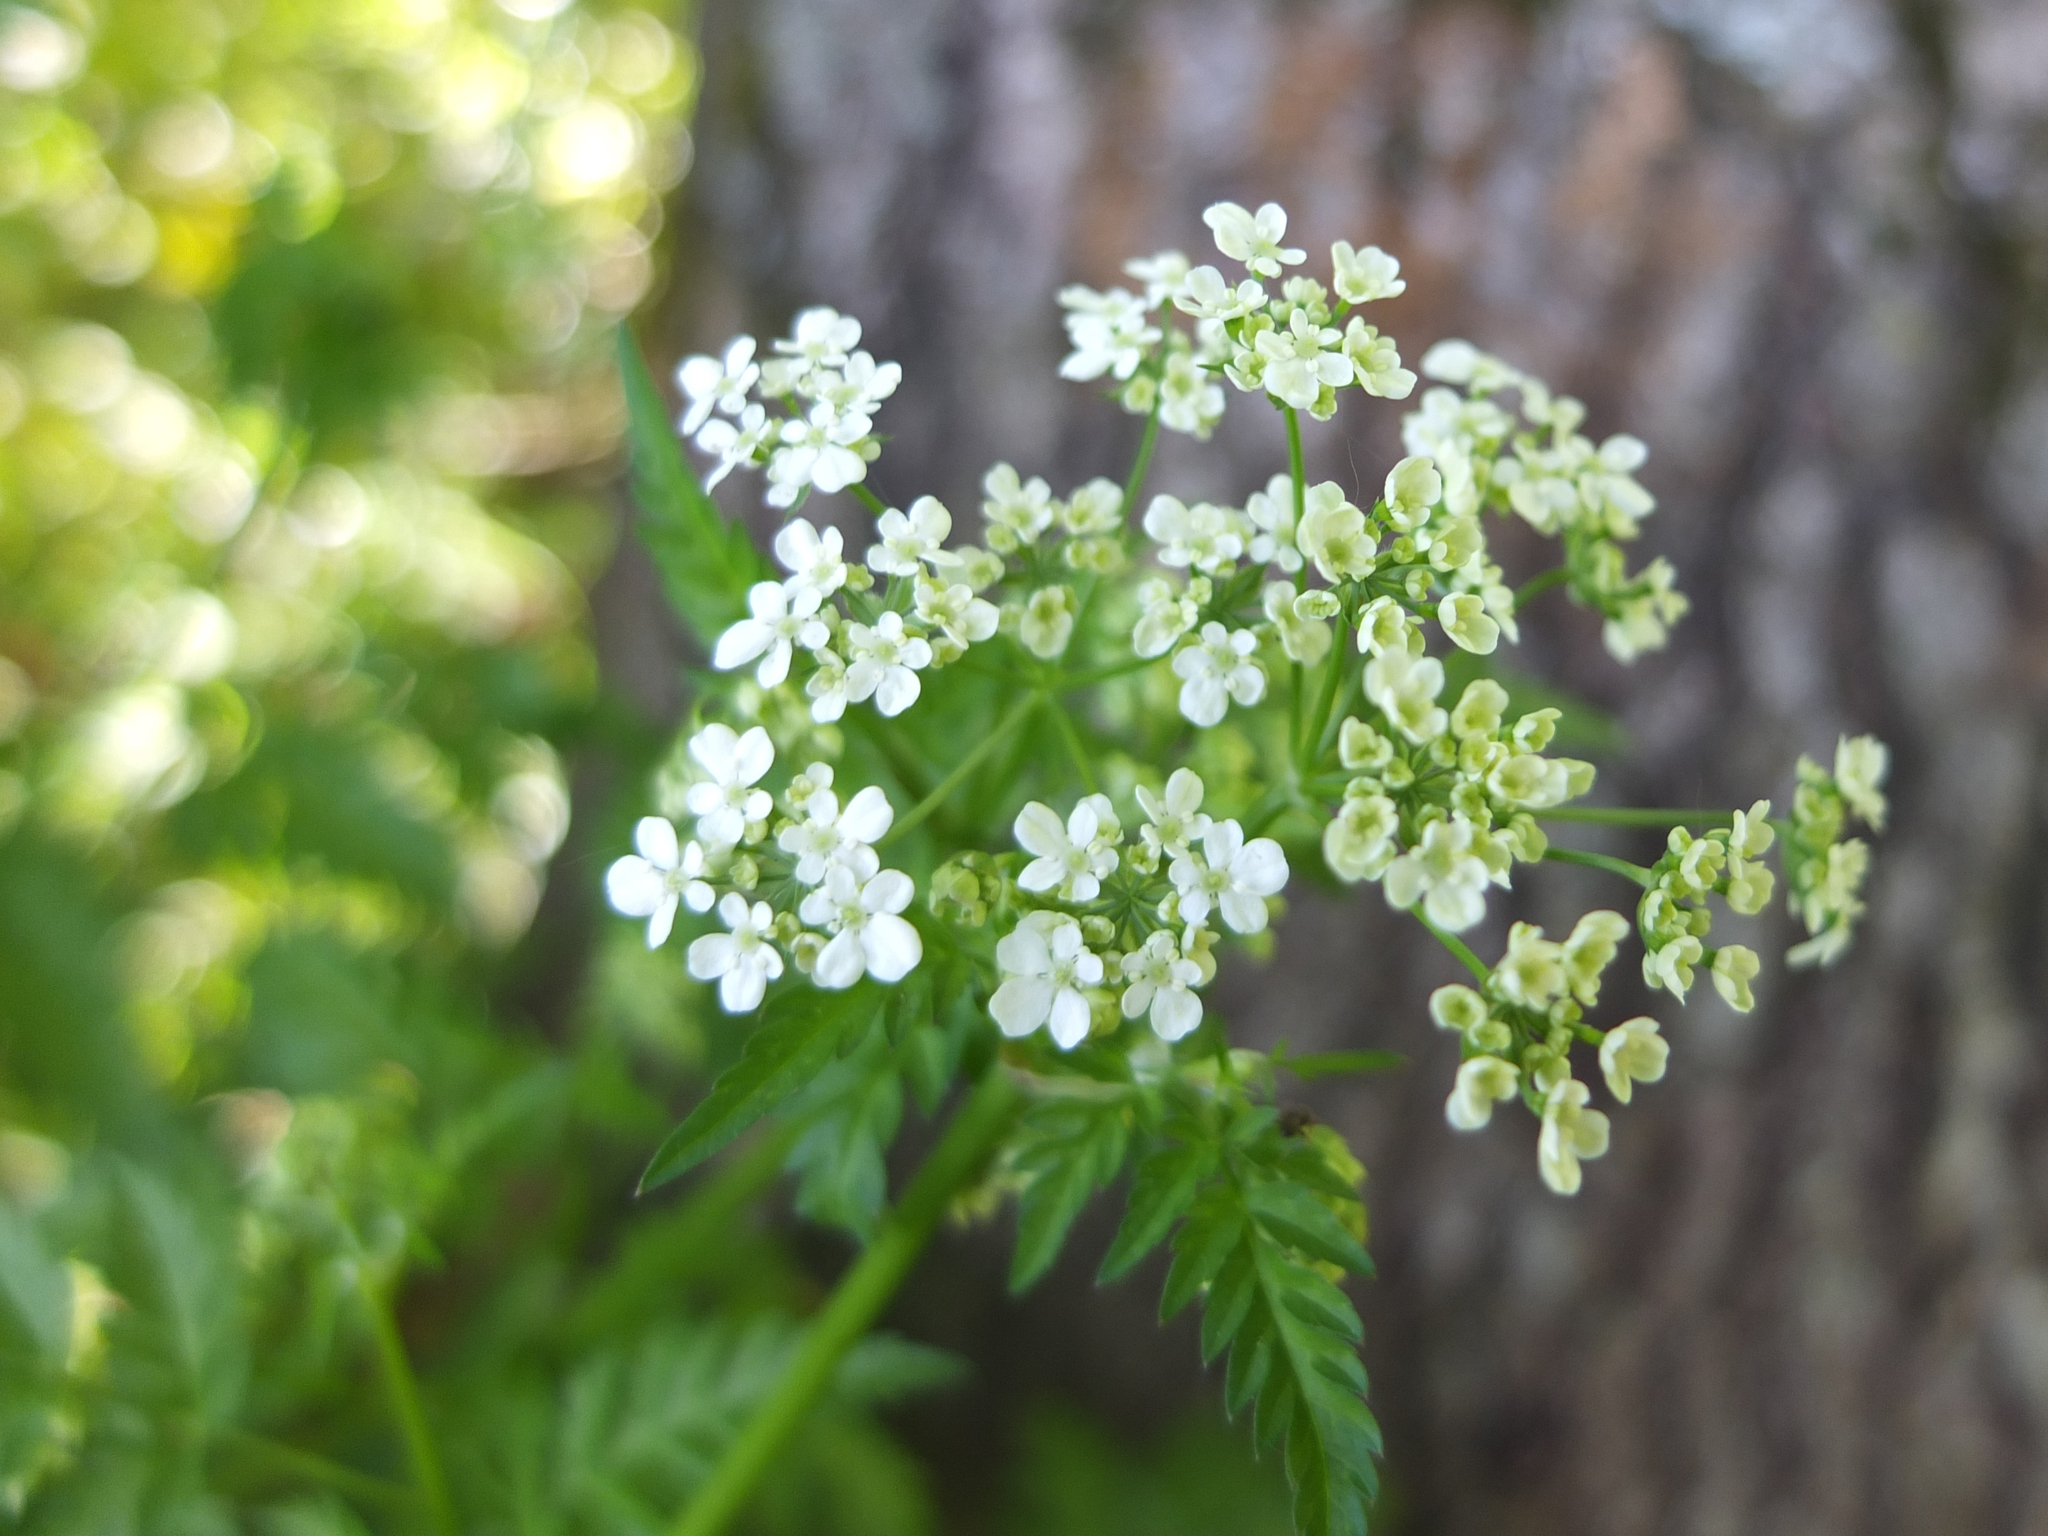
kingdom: Plantae
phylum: Tracheophyta
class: Magnoliopsida
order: Apiales
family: Apiaceae
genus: Anthriscus
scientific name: Anthriscus sylvestris
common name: Cow parsley
